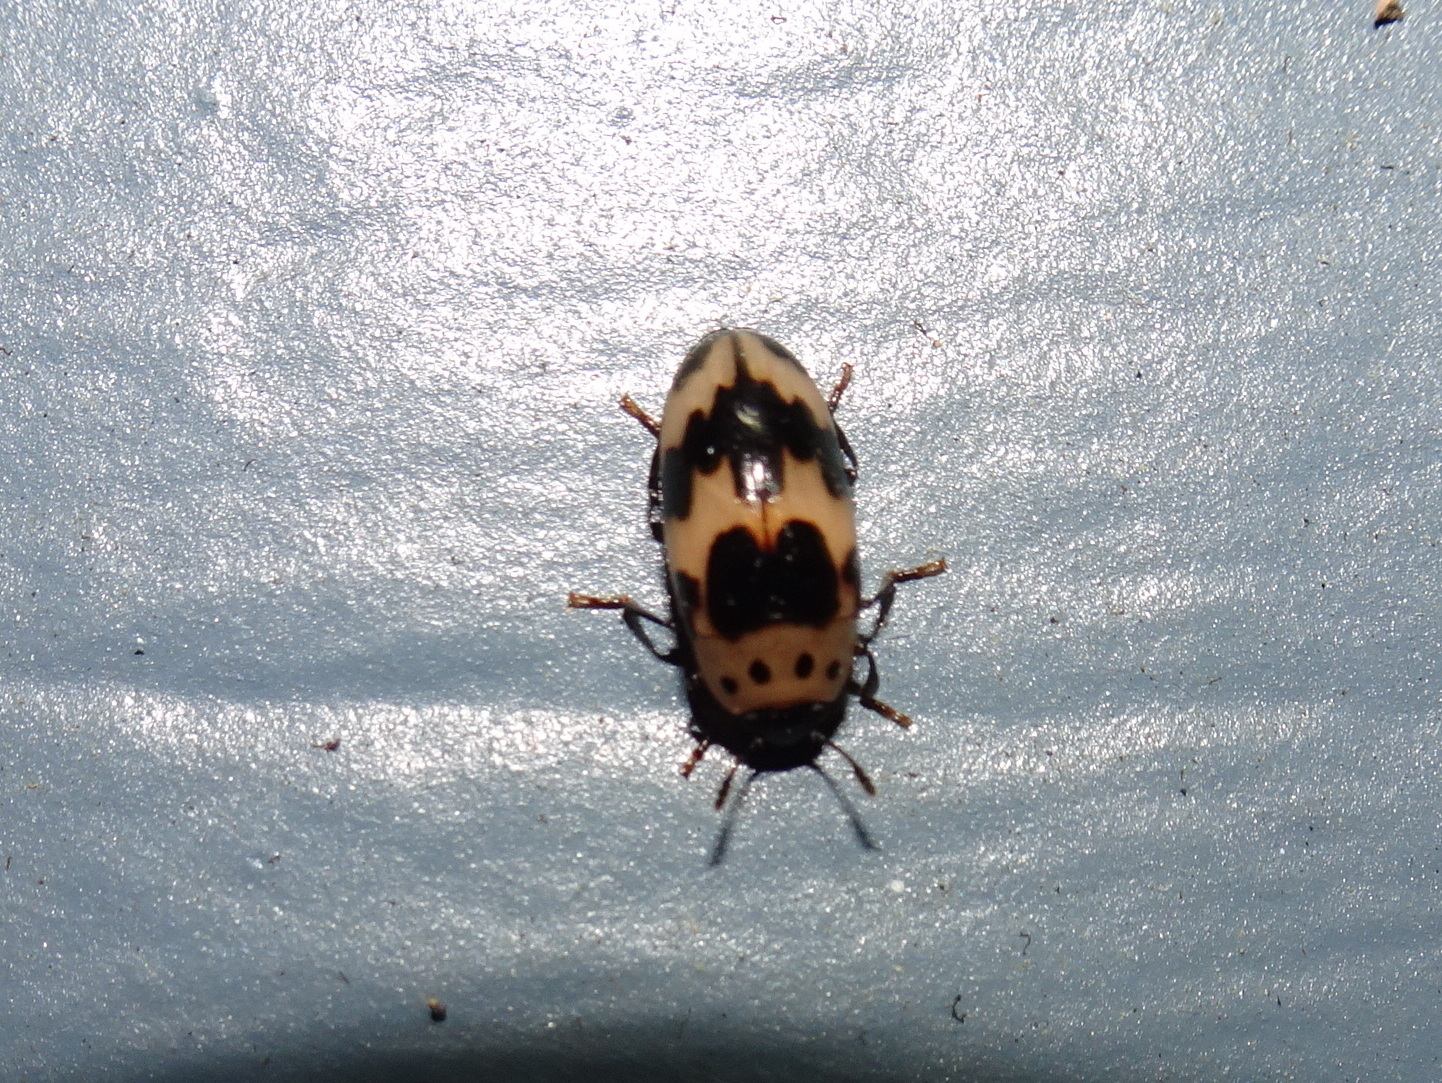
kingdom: Animalia
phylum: Arthropoda
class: Insecta
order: Coleoptera
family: Erotylidae
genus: Ischyrus
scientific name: Ischyrus quadripunctatus
